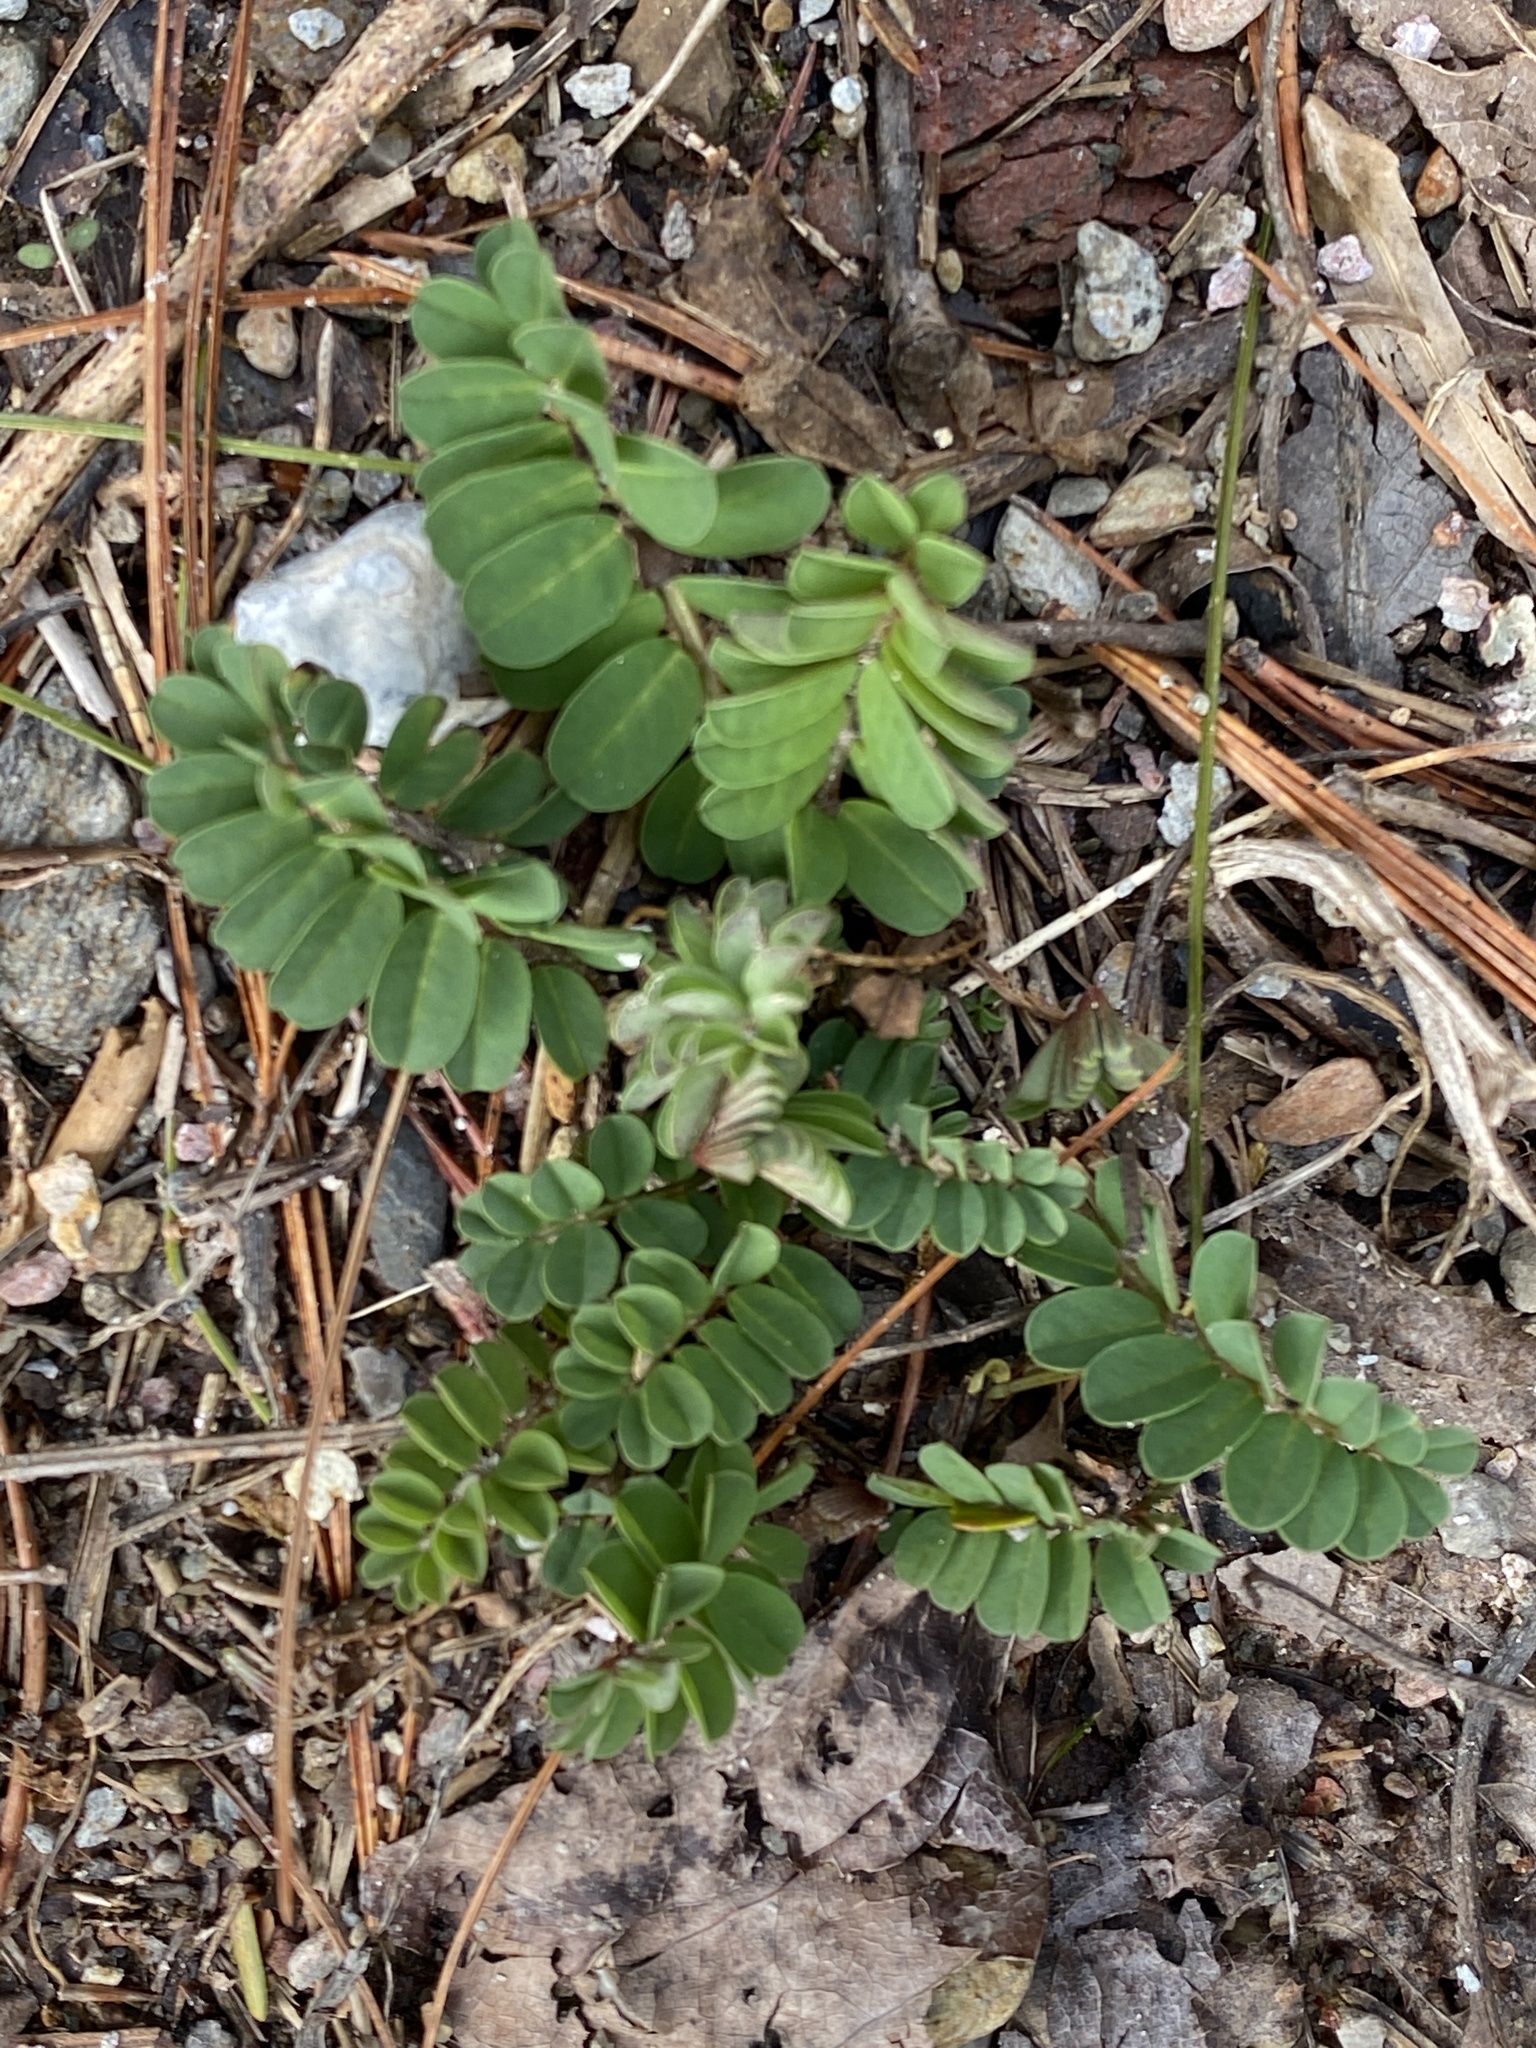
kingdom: Plantae
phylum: Tracheophyta
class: Magnoliopsida
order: Fabales
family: Fabaceae
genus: Coronilla
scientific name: Coronilla varia
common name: Crownvetch
